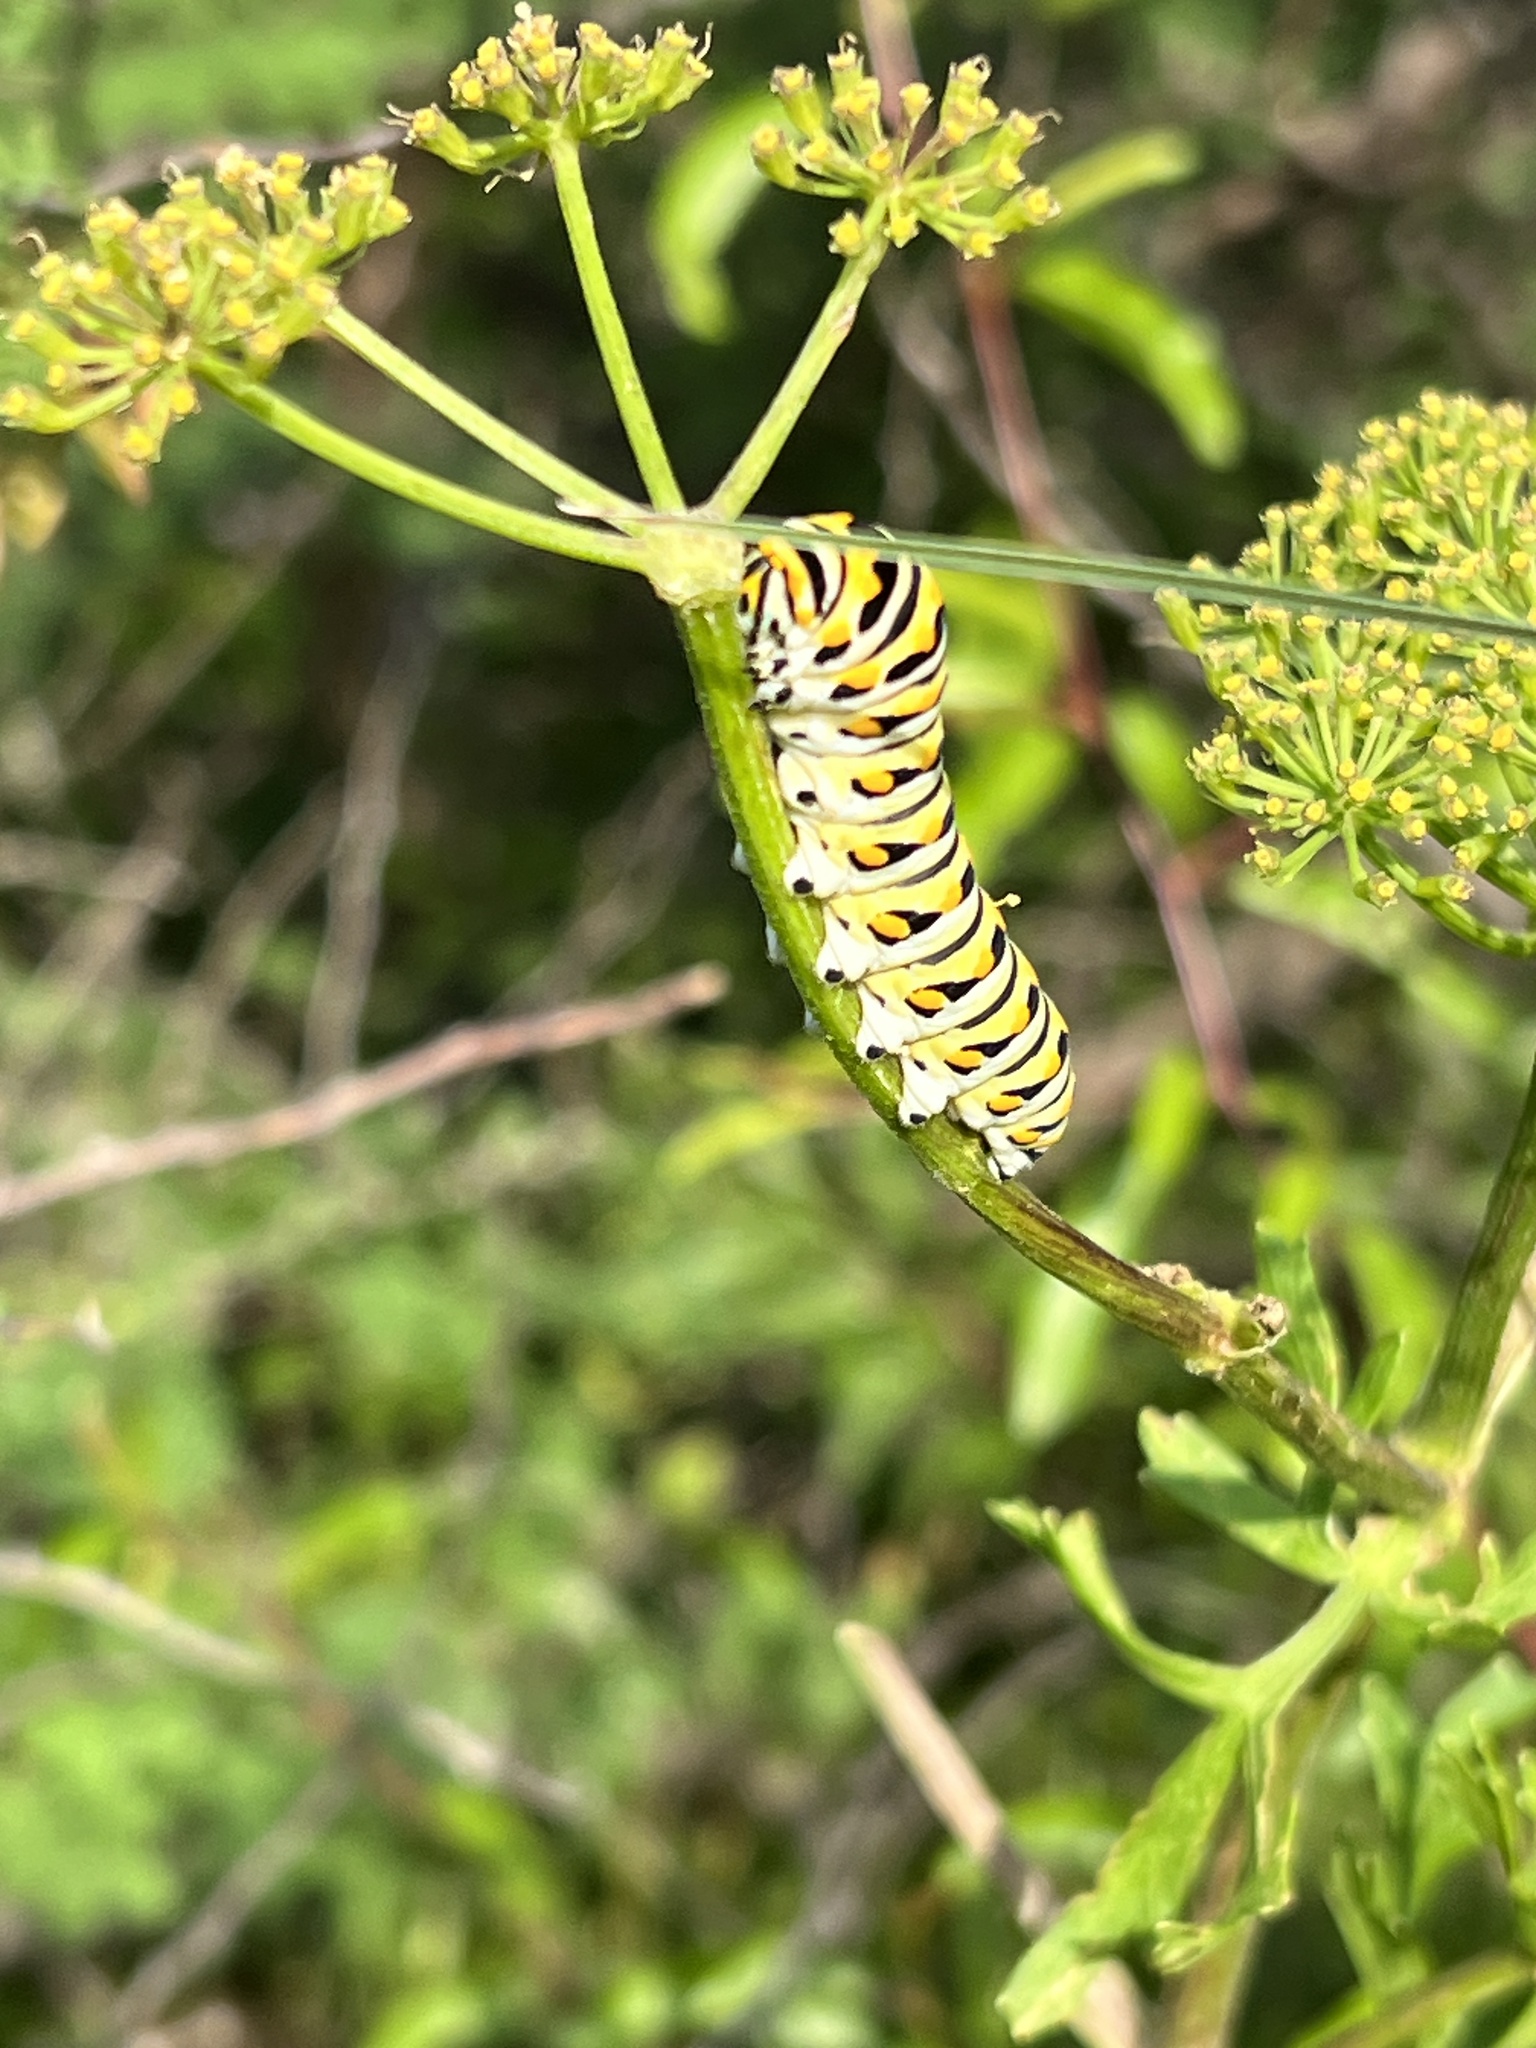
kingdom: Animalia
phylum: Arthropoda
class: Insecta
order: Lepidoptera
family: Papilionidae
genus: Papilio
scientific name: Papilio polyxenes
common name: Black swallowtail
